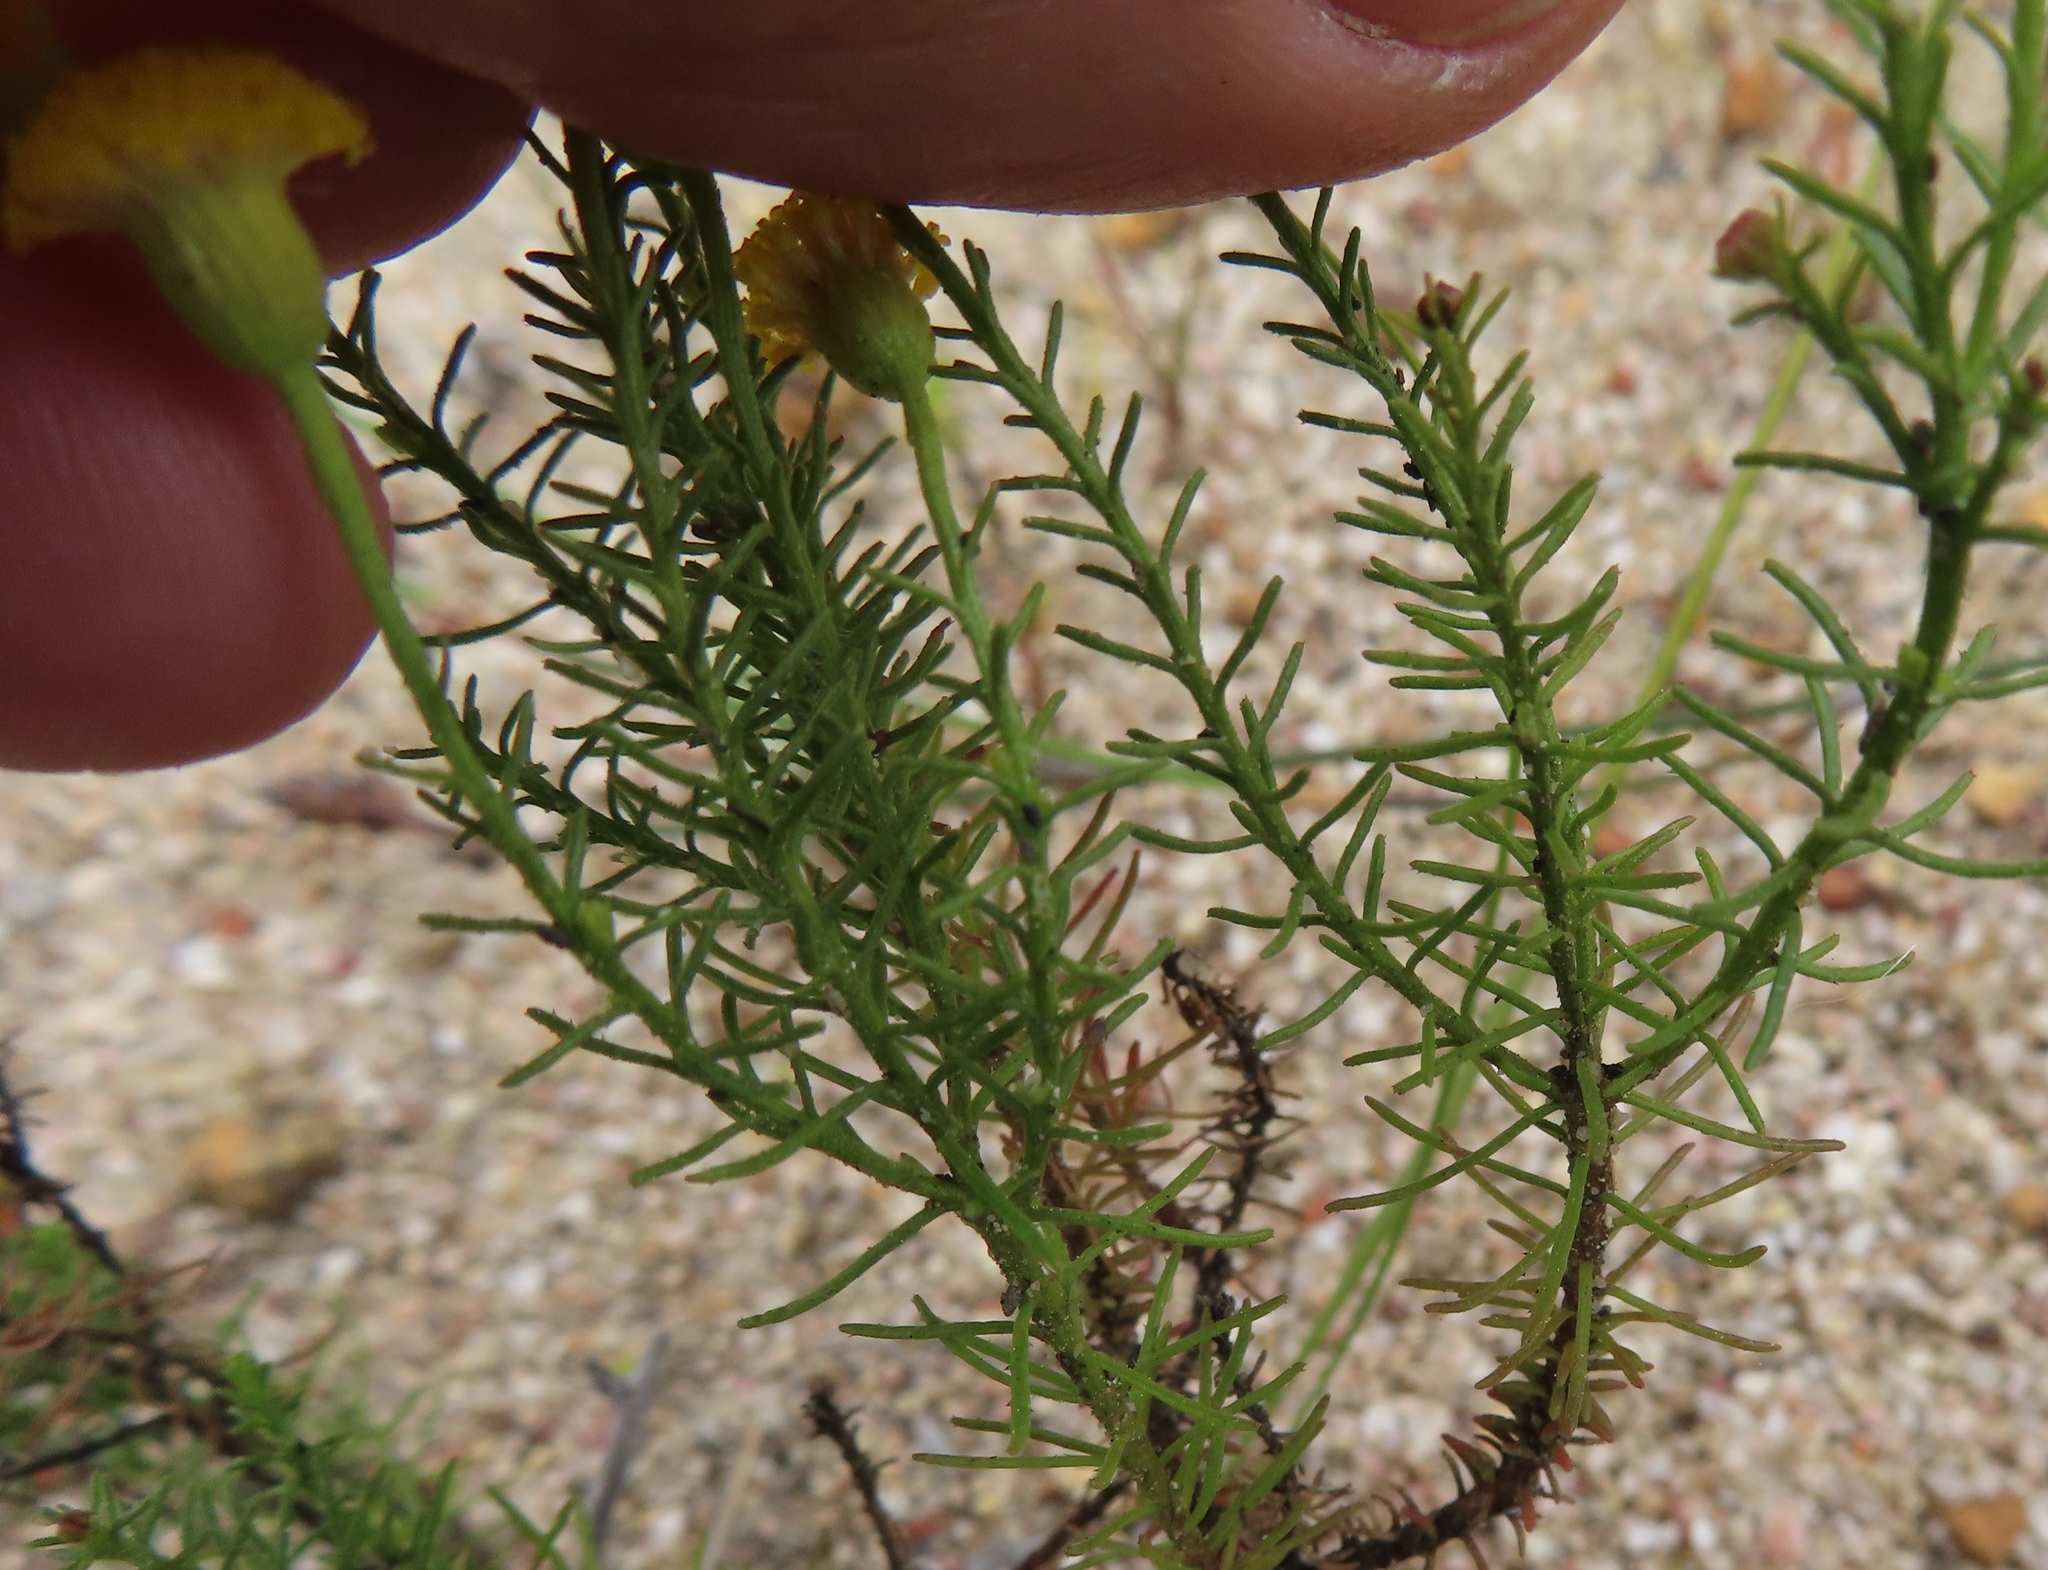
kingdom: Plantae
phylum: Tracheophyta
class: Magnoliopsida
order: Asterales
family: Asteraceae
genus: Chrysocoma
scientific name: Chrysocoma ciliata
